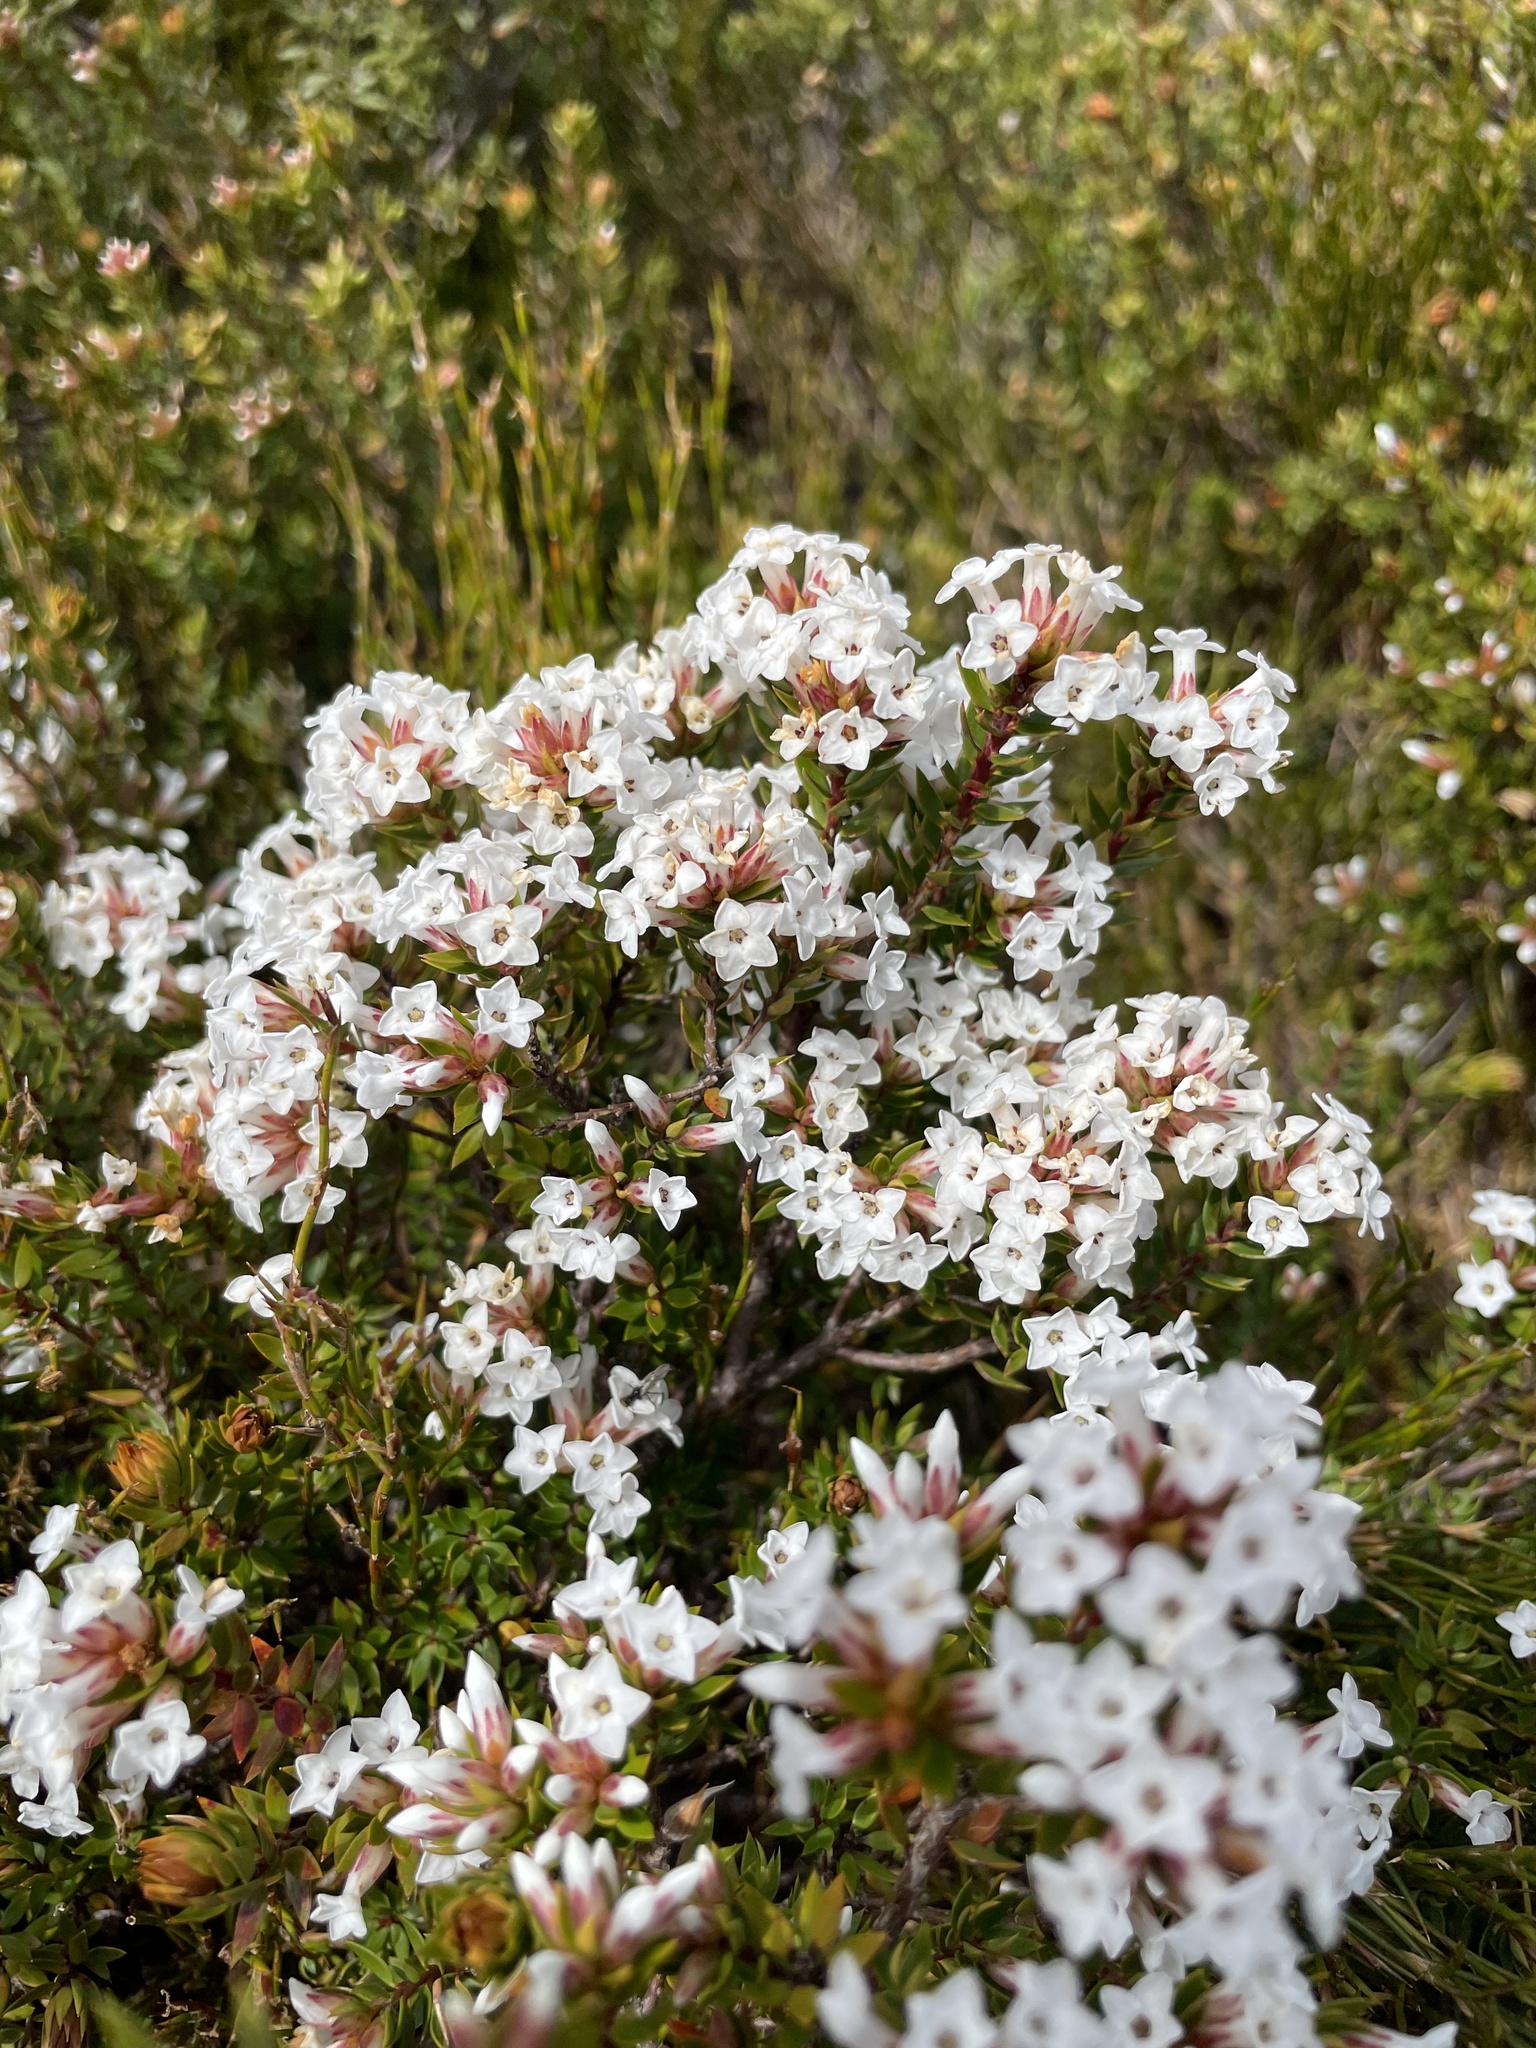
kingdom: Plantae
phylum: Tracheophyta
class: Magnoliopsida
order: Ericales
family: Ericaceae
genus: Epacris
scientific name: Epacris paludosa
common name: Swamp-heath
